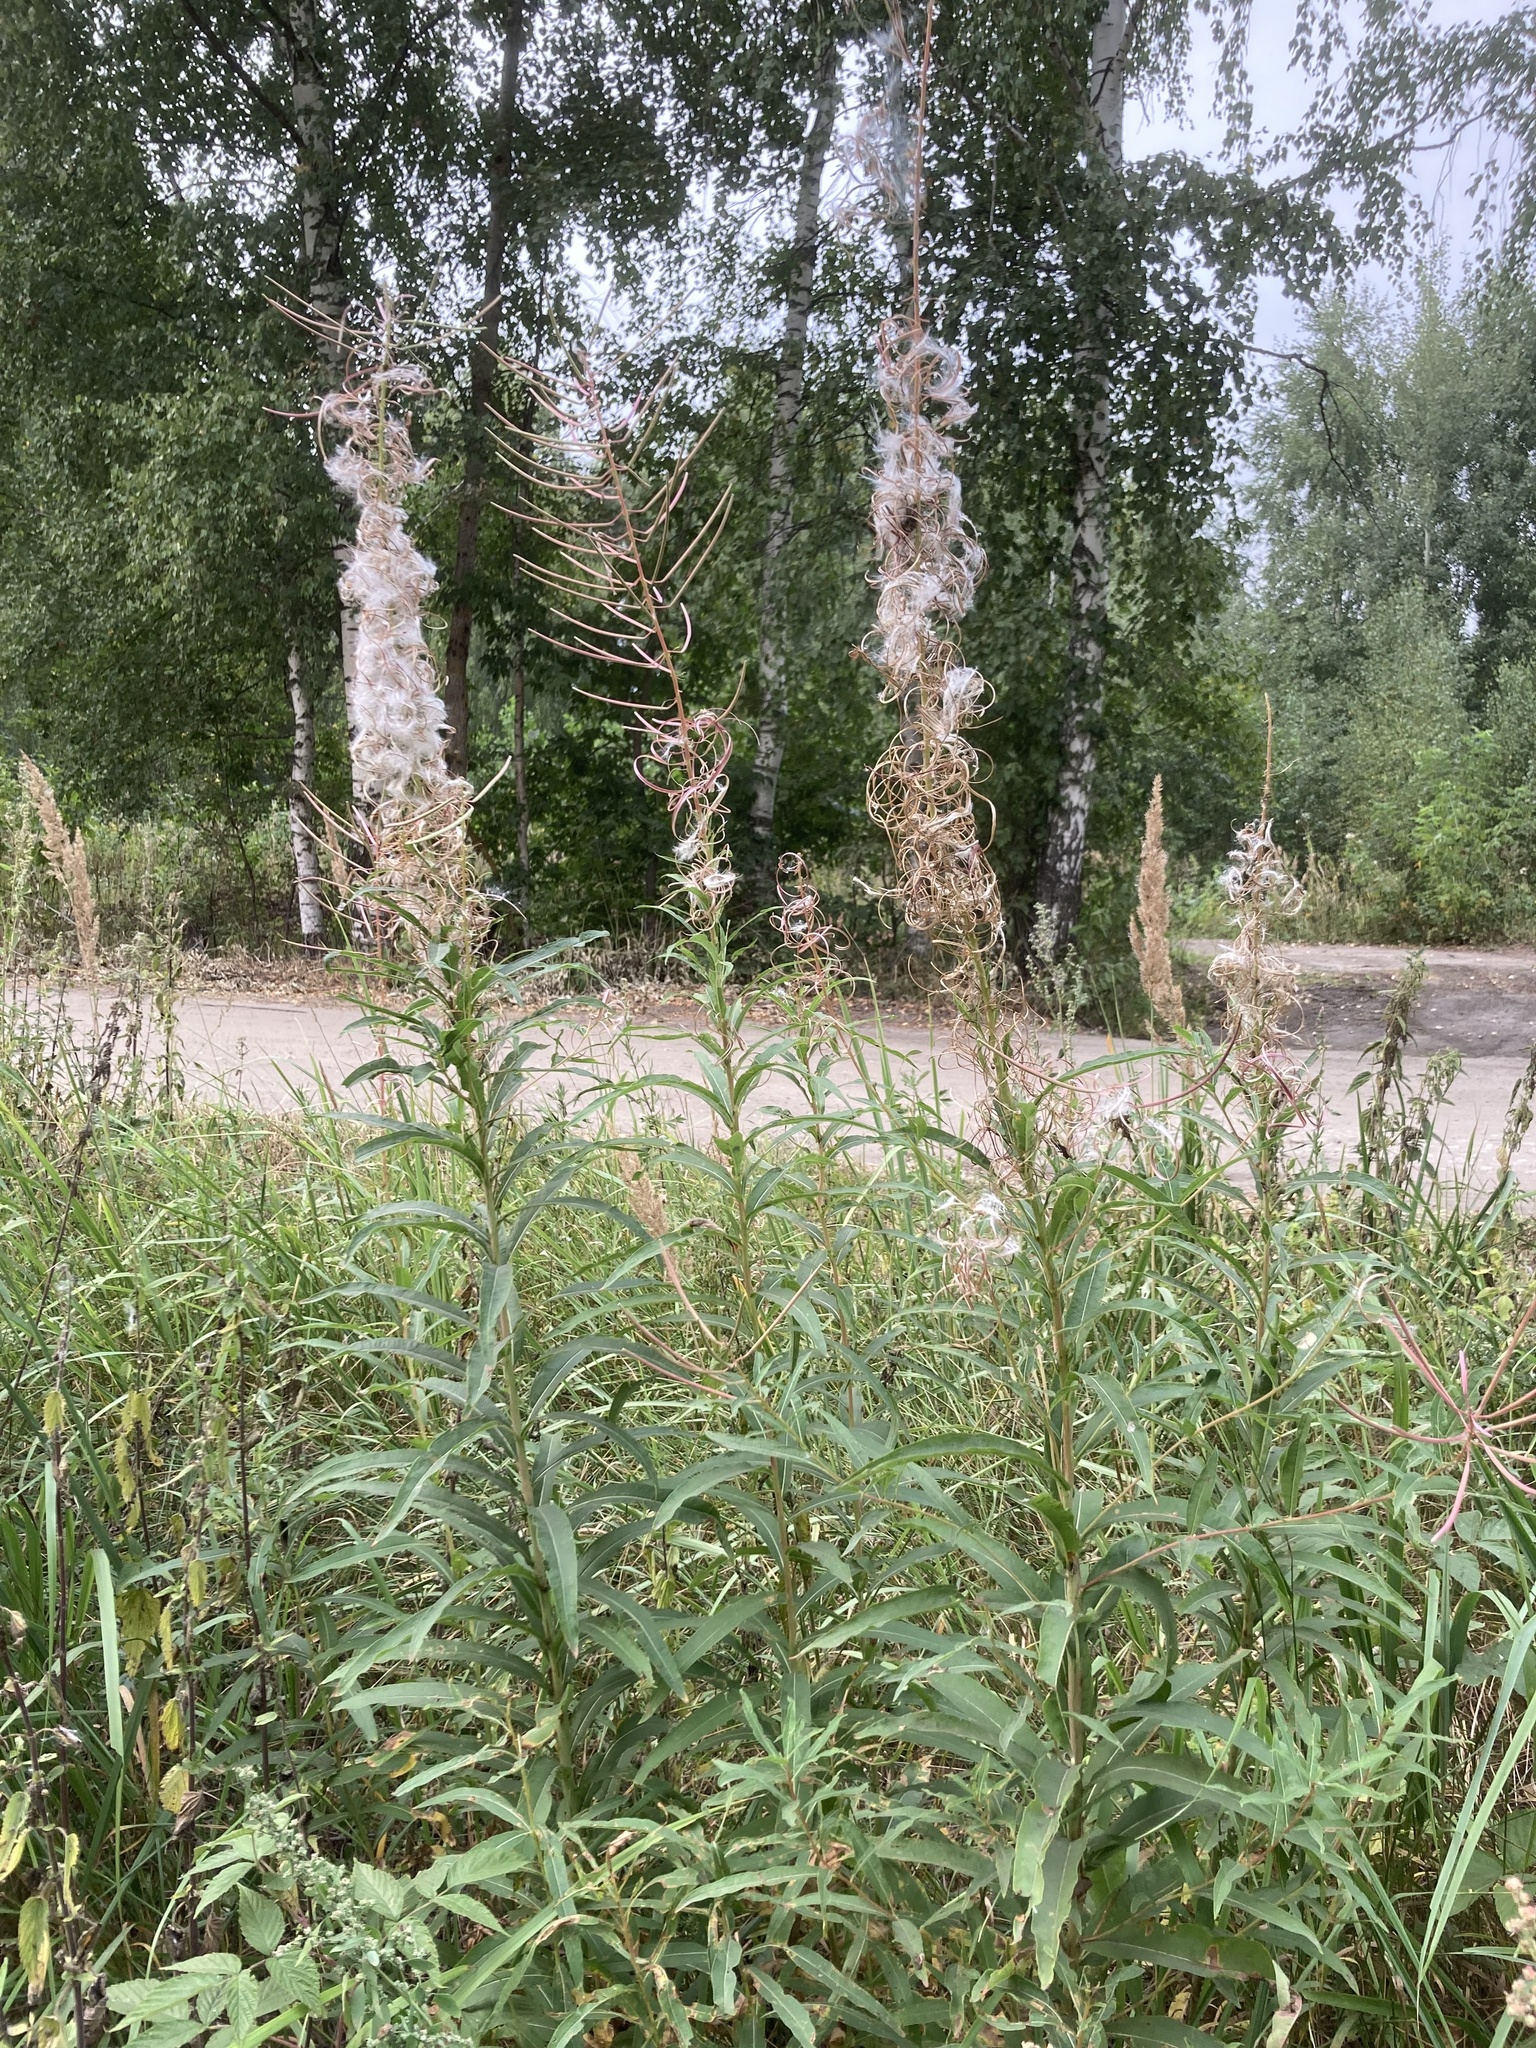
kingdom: Plantae
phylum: Tracheophyta
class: Magnoliopsida
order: Myrtales
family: Onagraceae
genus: Chamaenerion
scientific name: Chamaenerion angustifolium
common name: Fireweed
